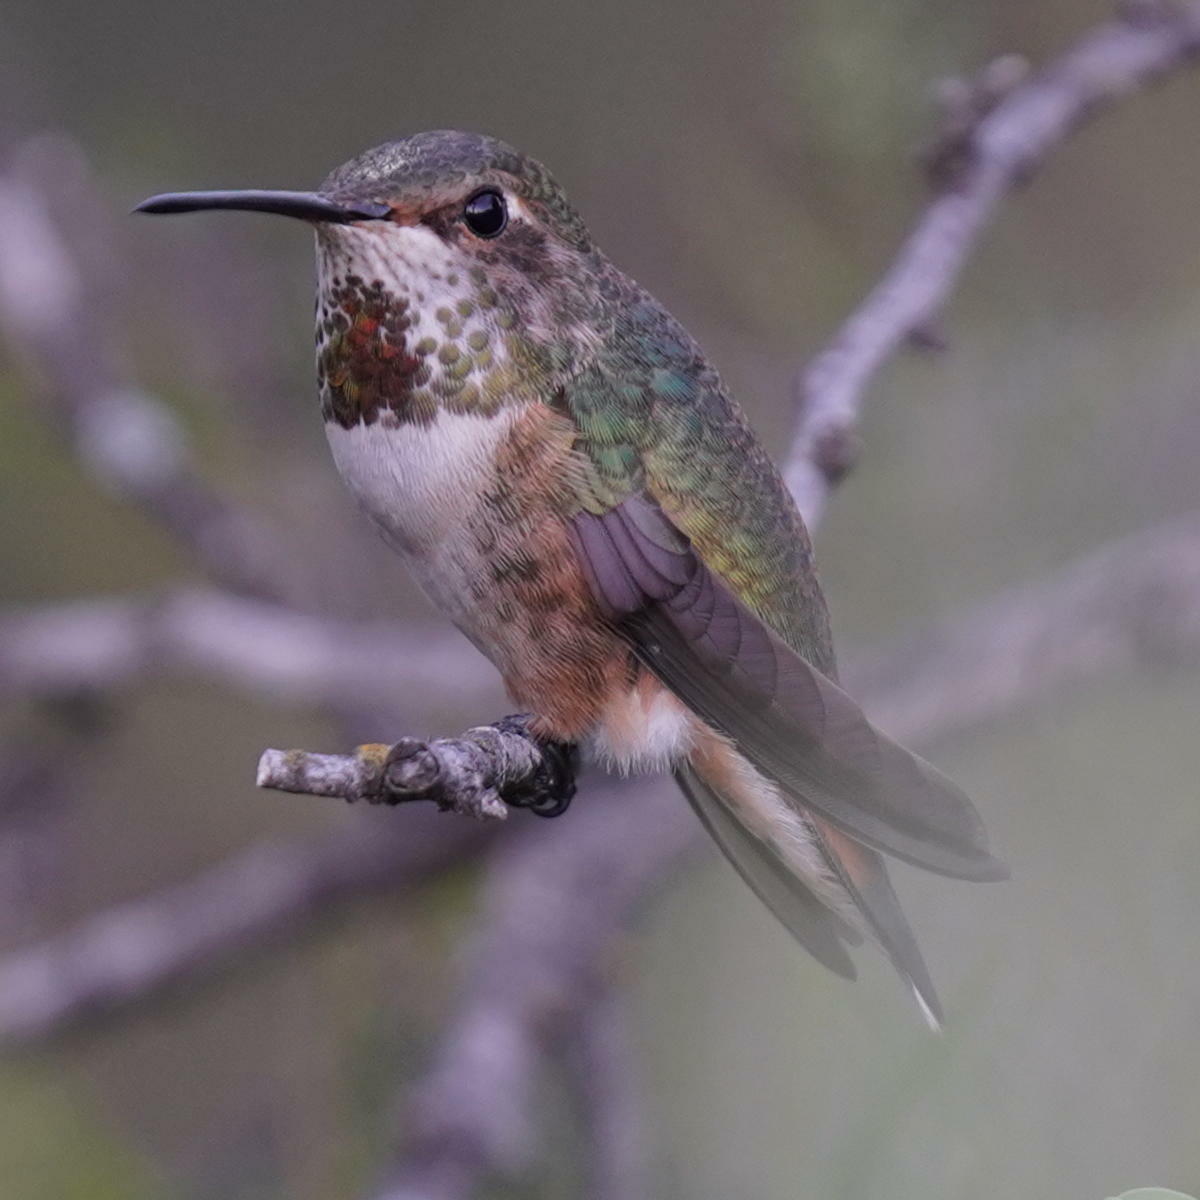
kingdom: Animalia
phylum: Chordata
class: Aves
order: Apodiformes
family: Trochilidae
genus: Selasphorus
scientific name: Selasphorus sasin
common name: Allen's hummingbird
